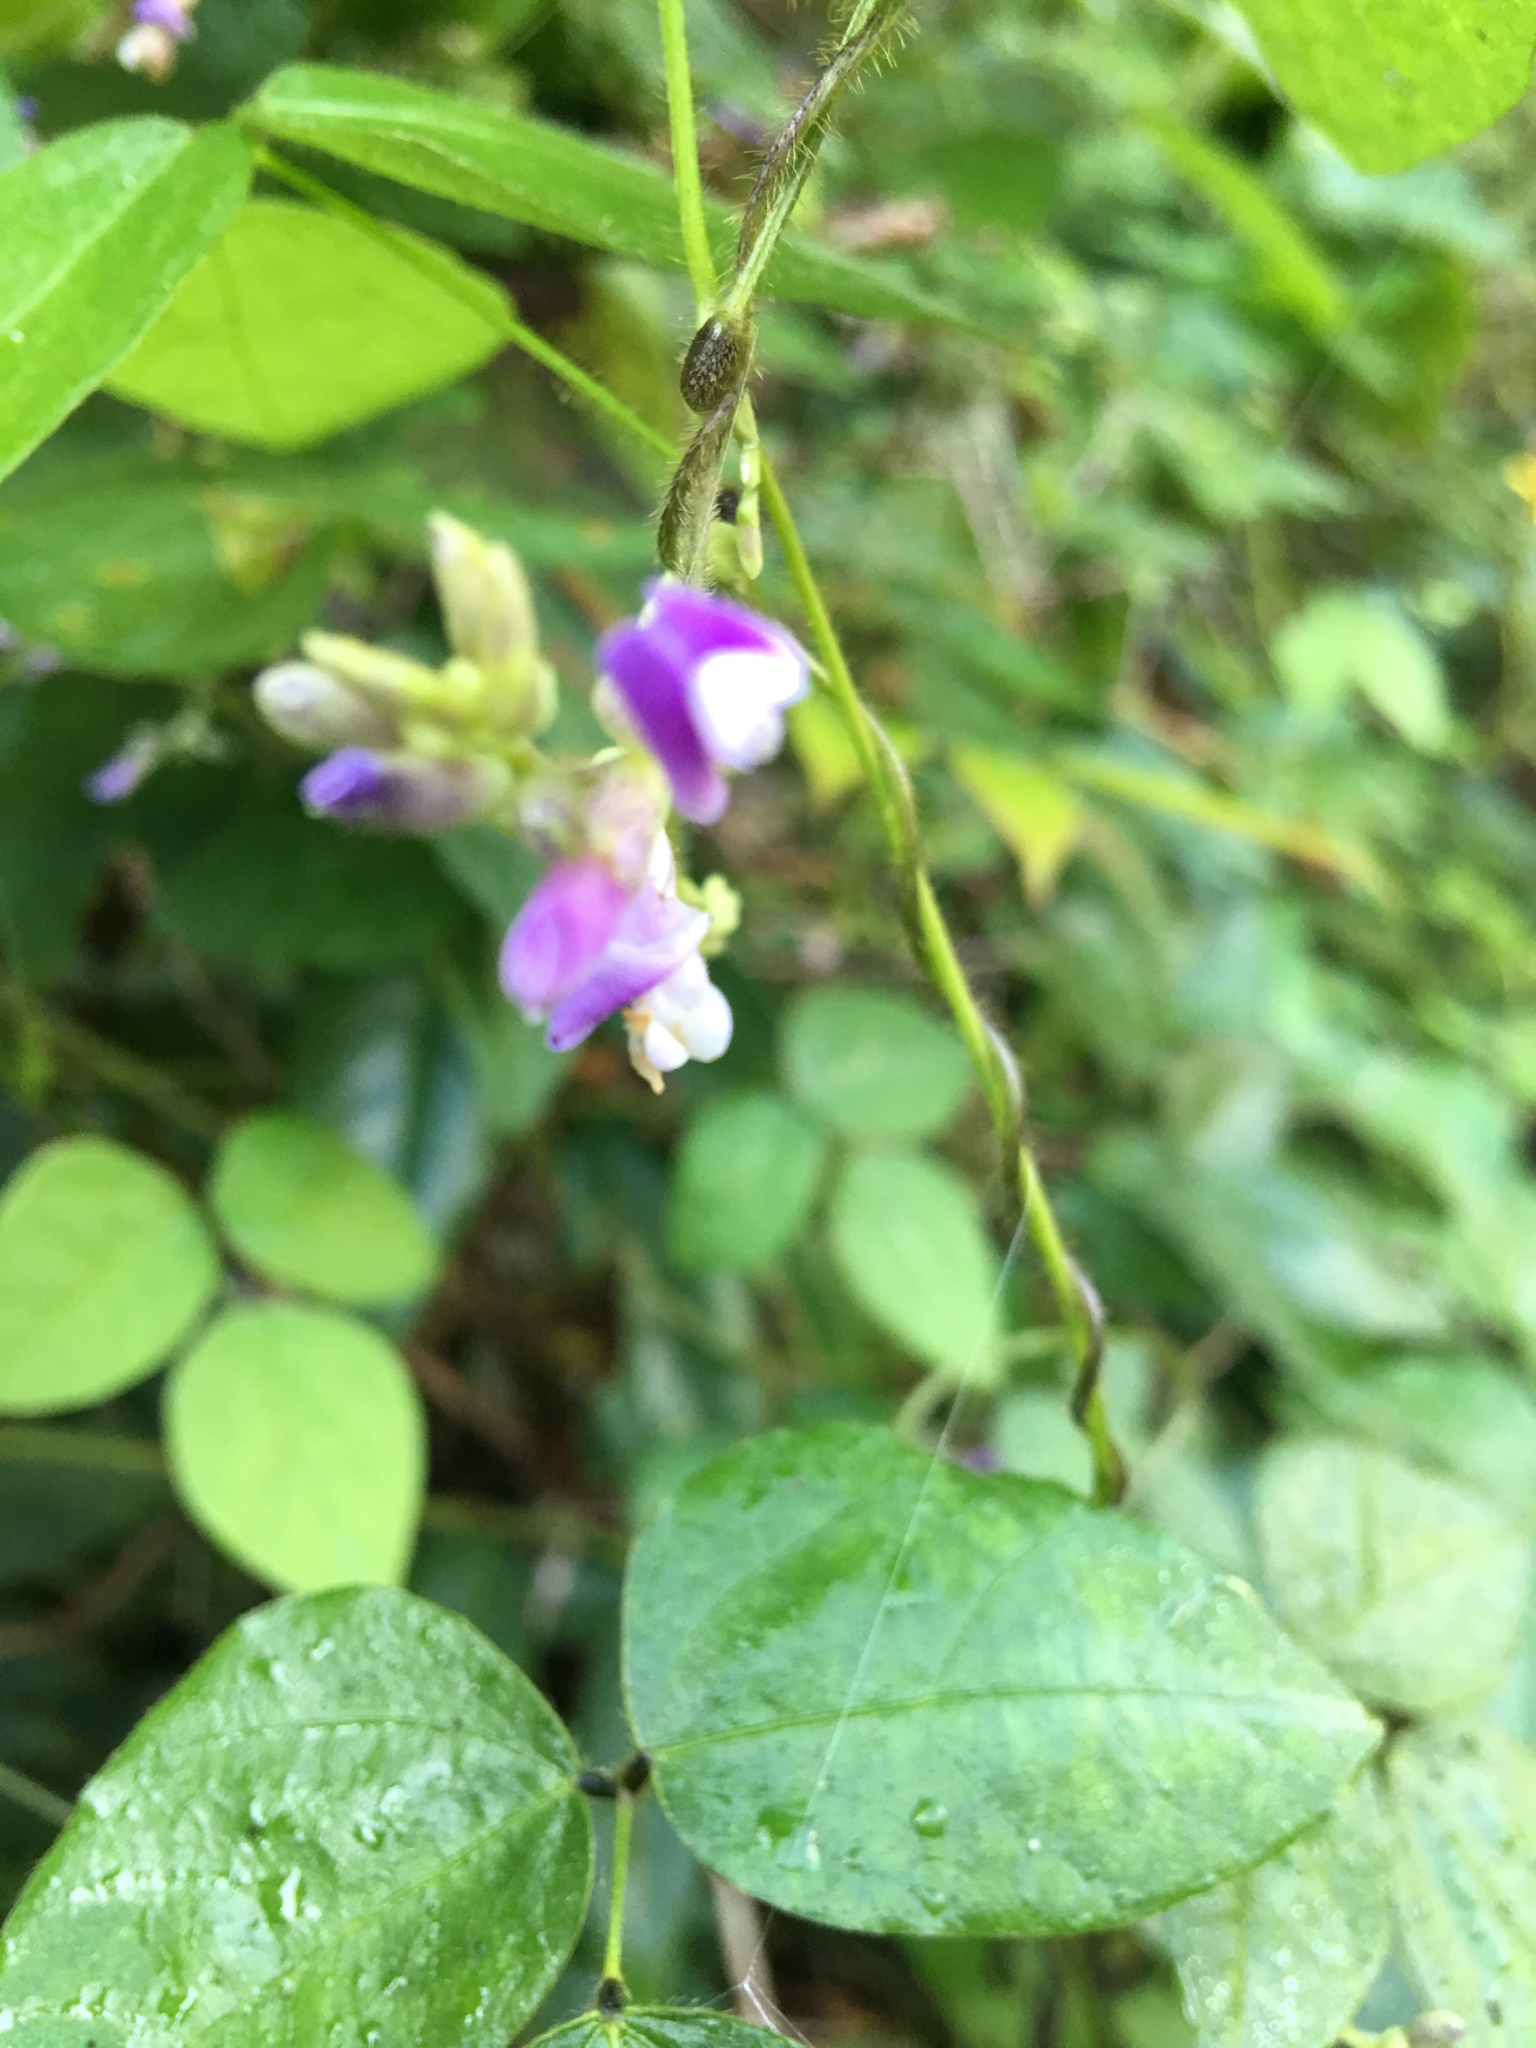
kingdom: Plantae
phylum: Tracheophyta
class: Magnoliopsida
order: Fabales
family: Fabaceae
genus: Amphicarpaea
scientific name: Amphicarpaea bracteata
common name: American hog peanut
